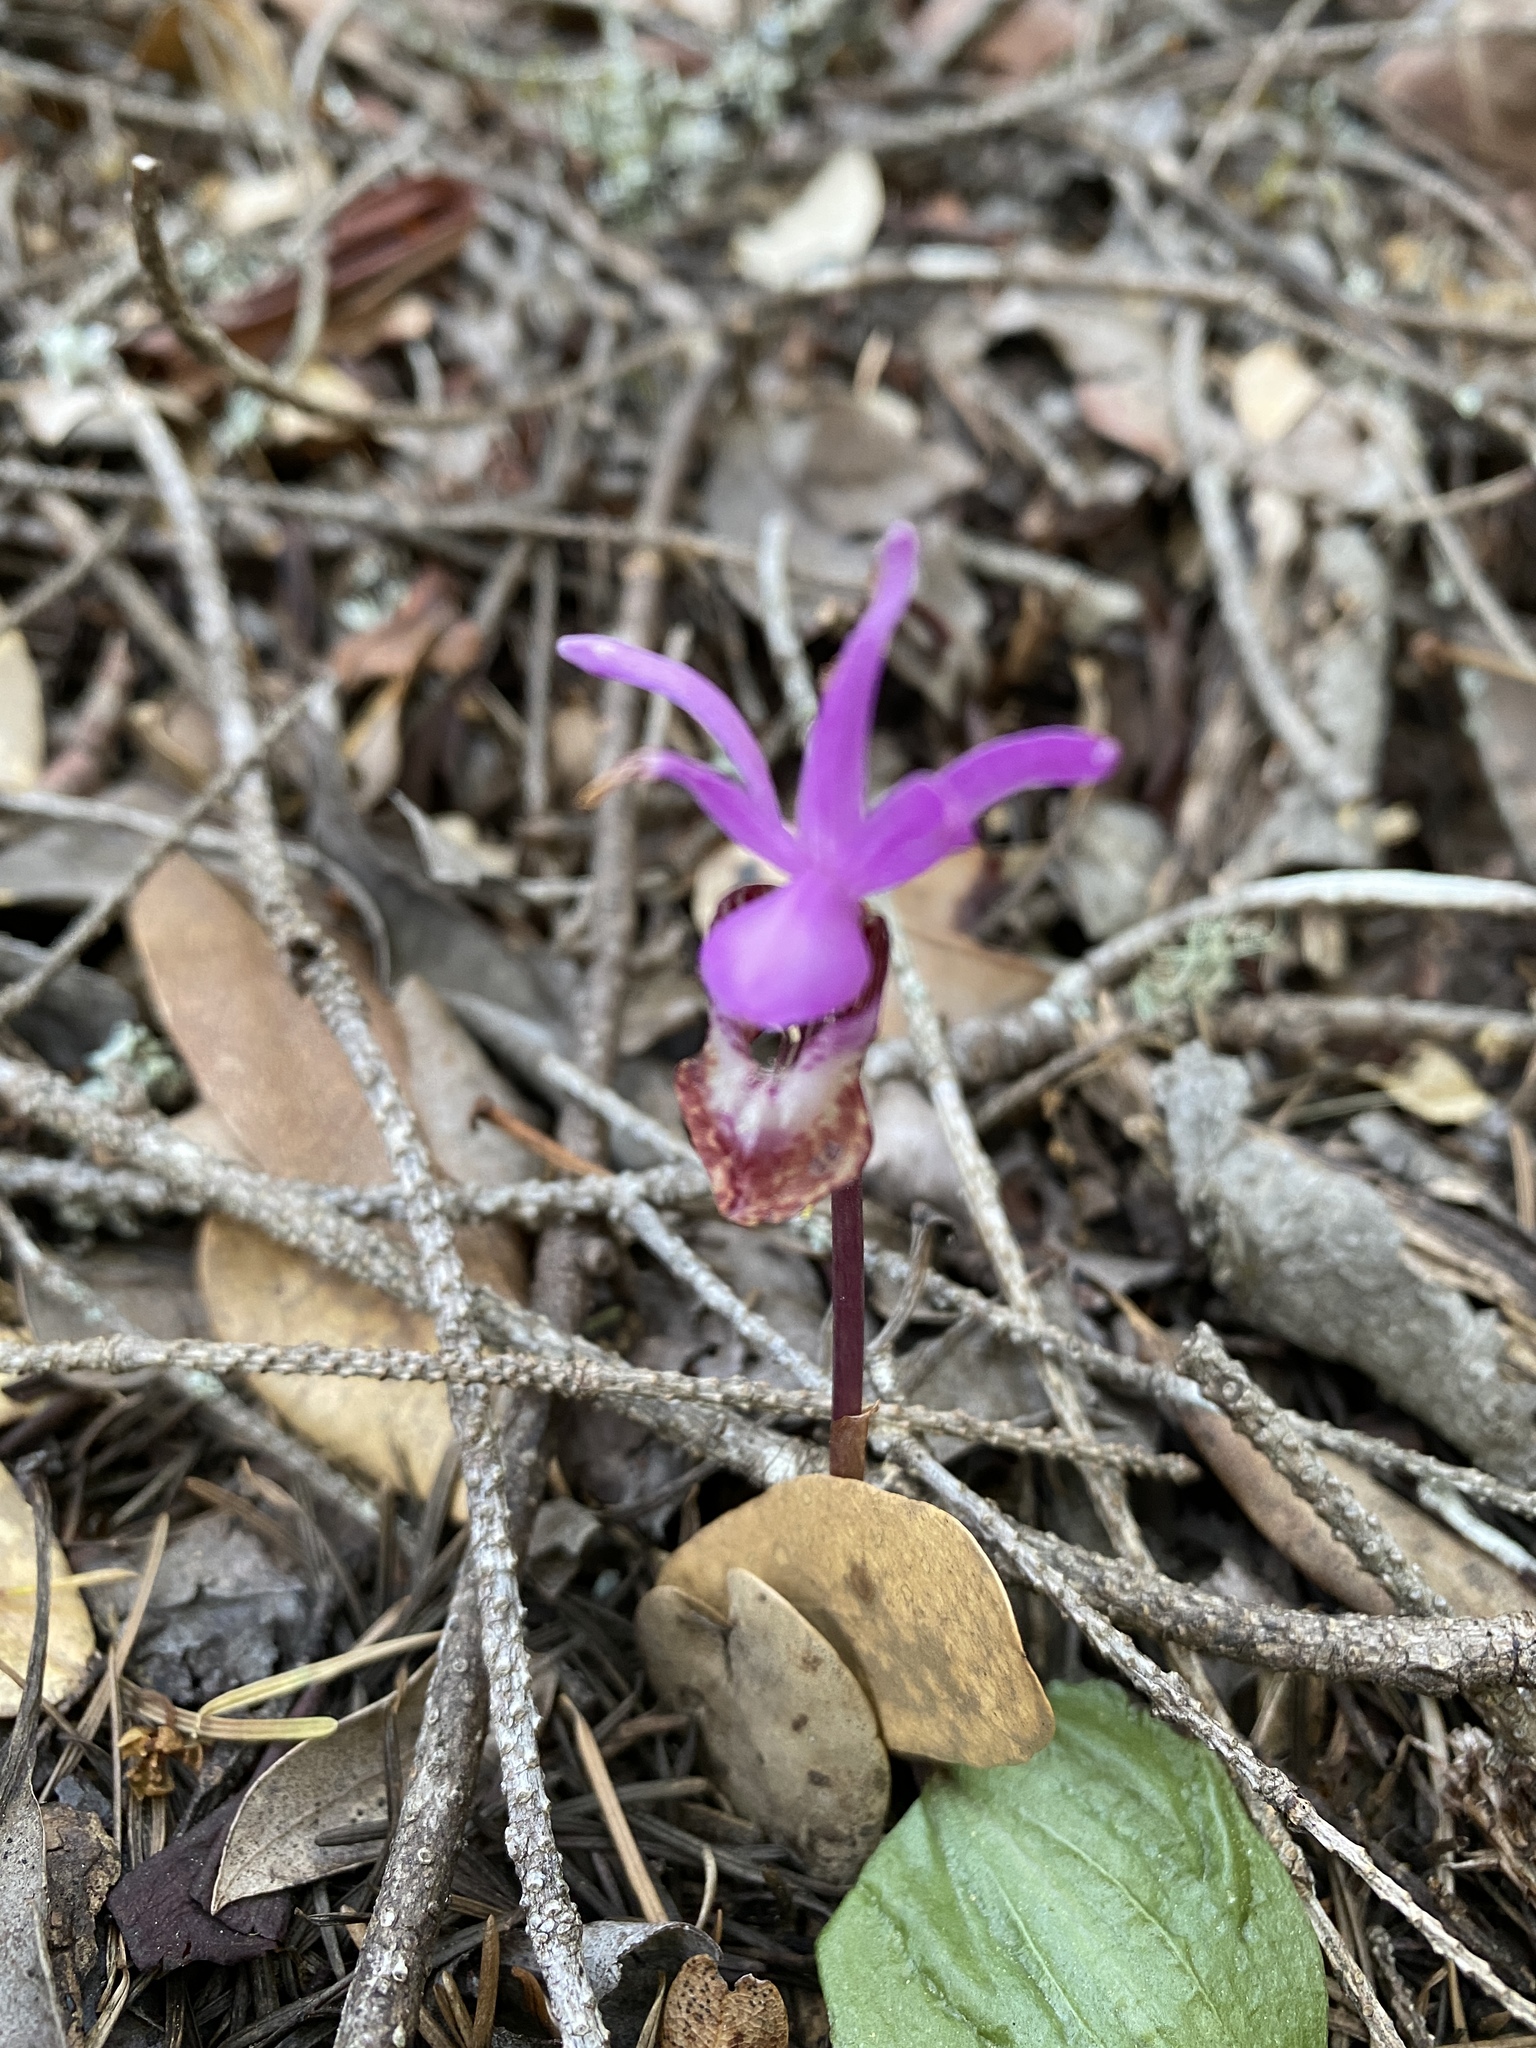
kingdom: Plantae
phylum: Tracheophyta
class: Liliopsida
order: Asparagales
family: Orchidaceae
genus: Calypso
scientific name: Calypso bulbosa
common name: Calypso
